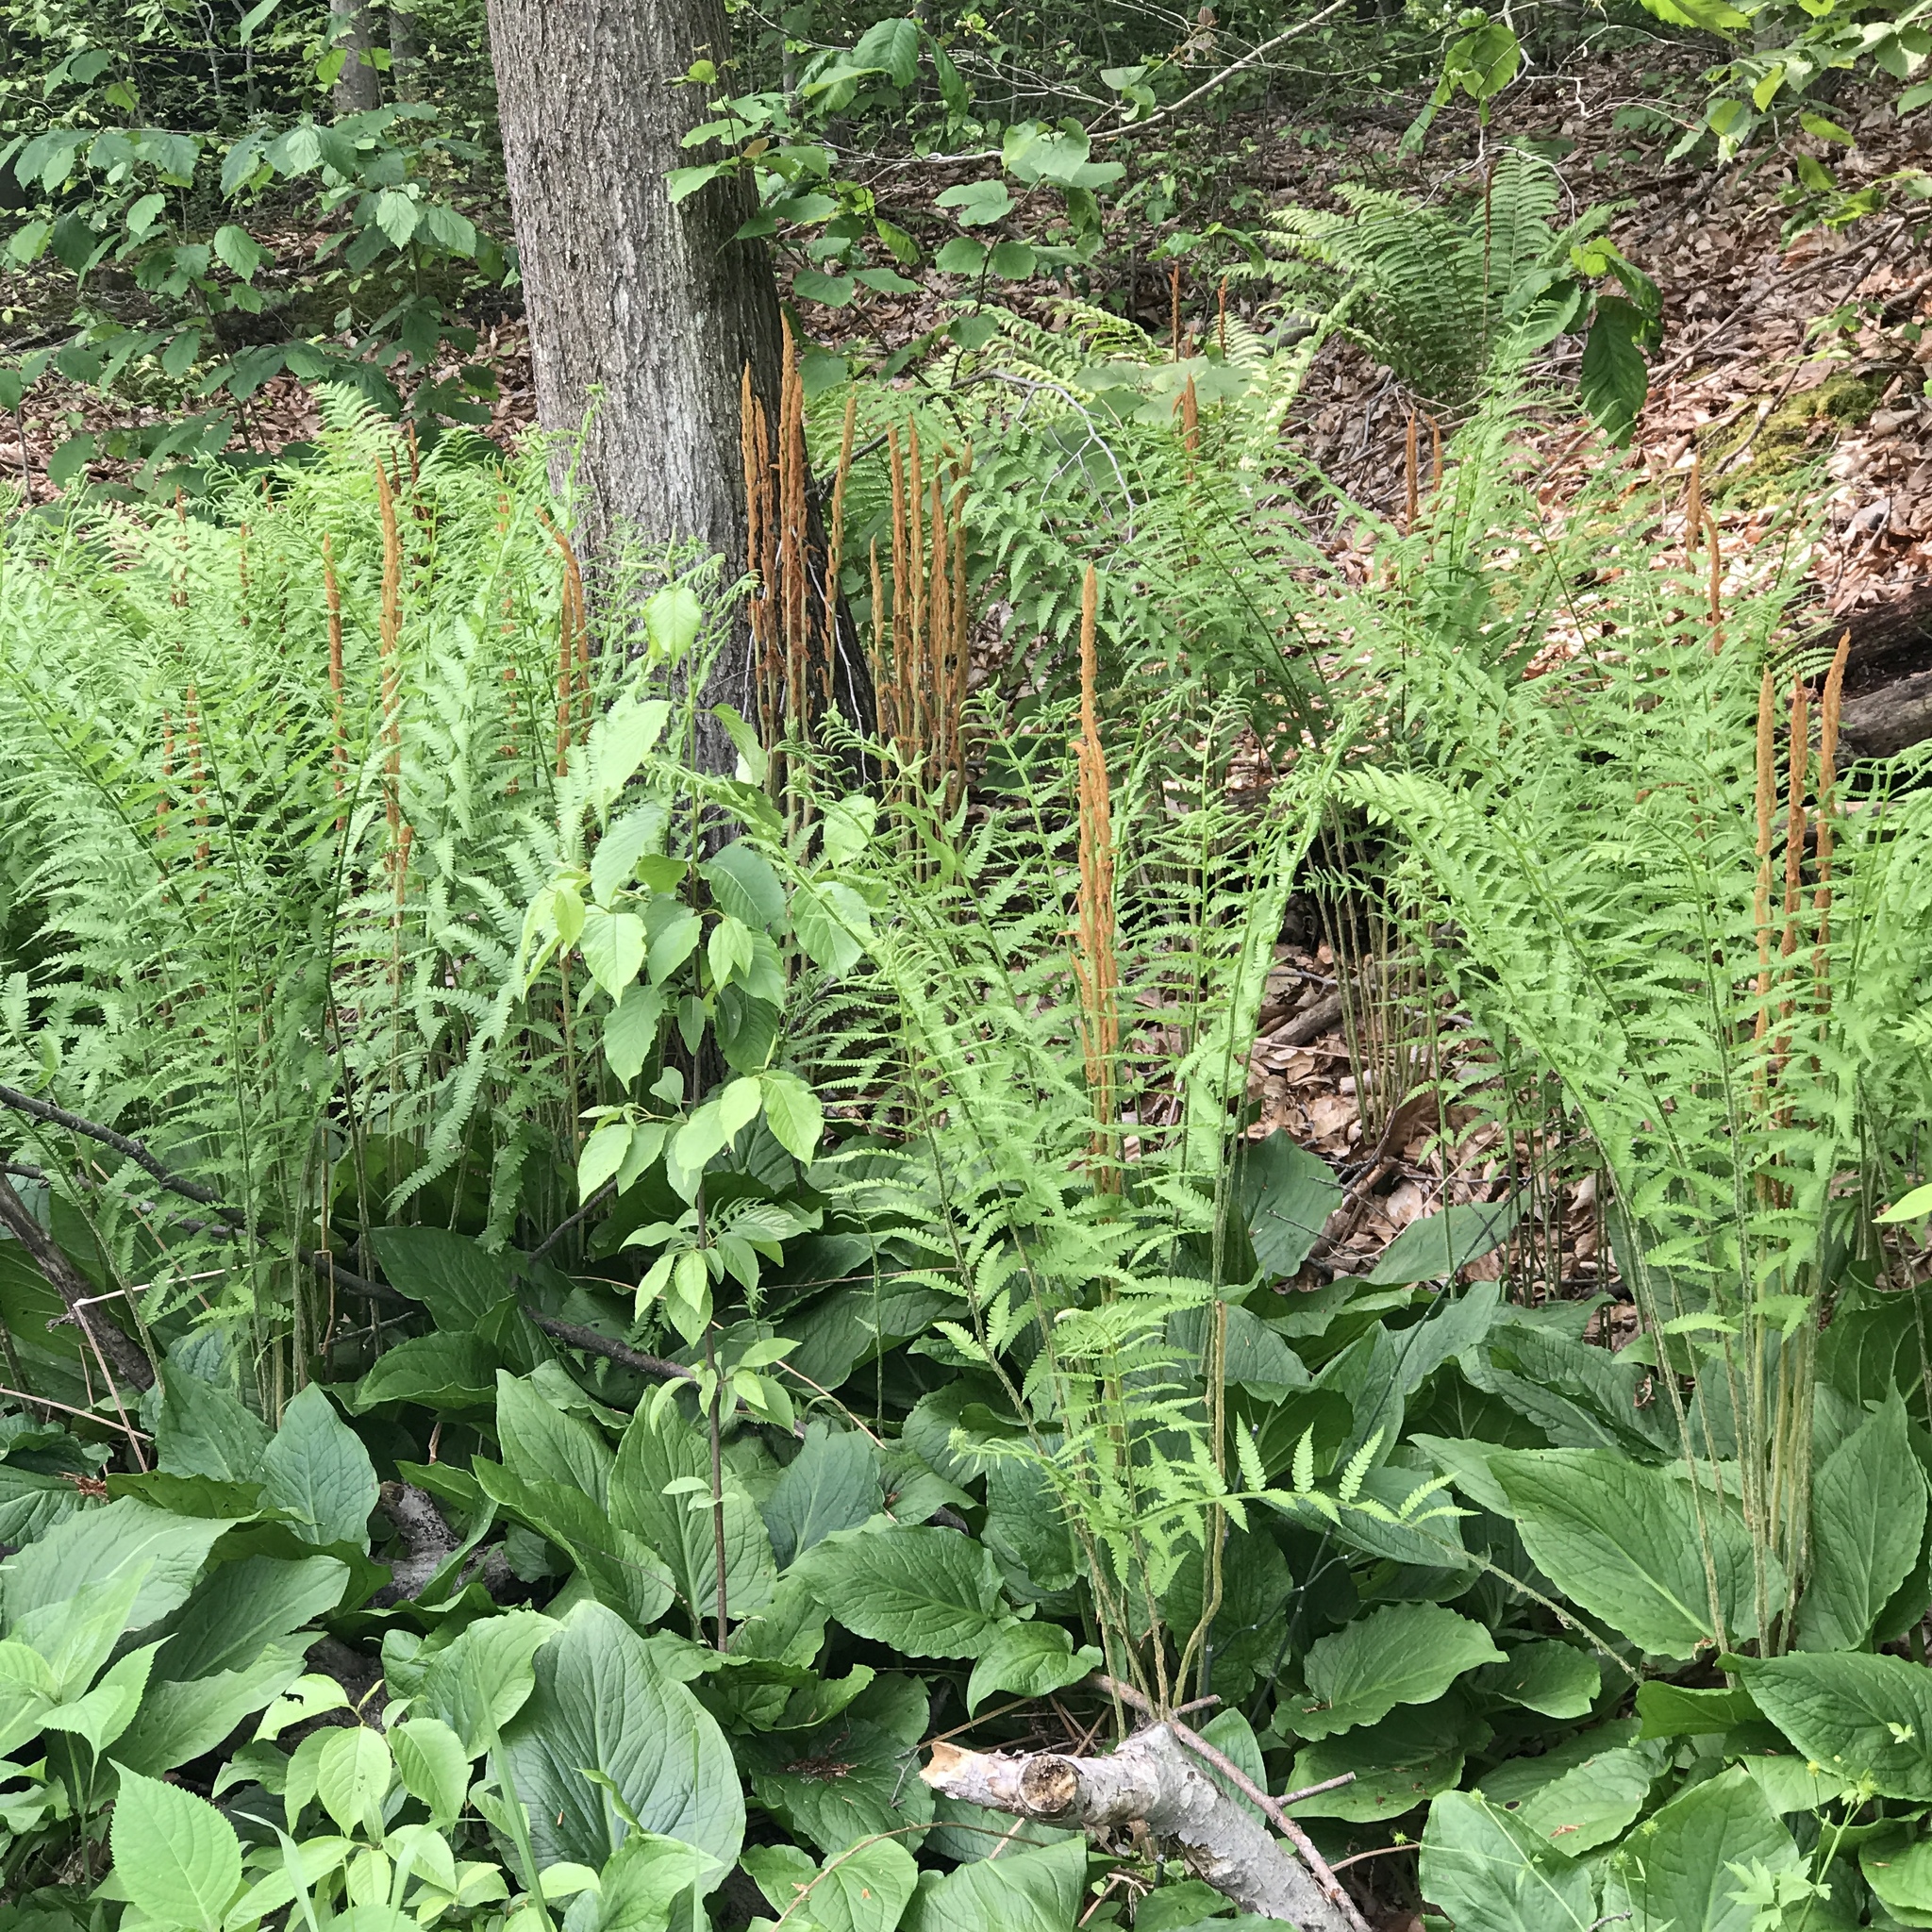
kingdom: Plantae
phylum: Tracheophyta
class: Polypodiopsida
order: Osmundales
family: Osmundaceae
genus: Osmundastrum
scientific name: Osmundastrum cinnamomeum
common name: Cinnamon fern
